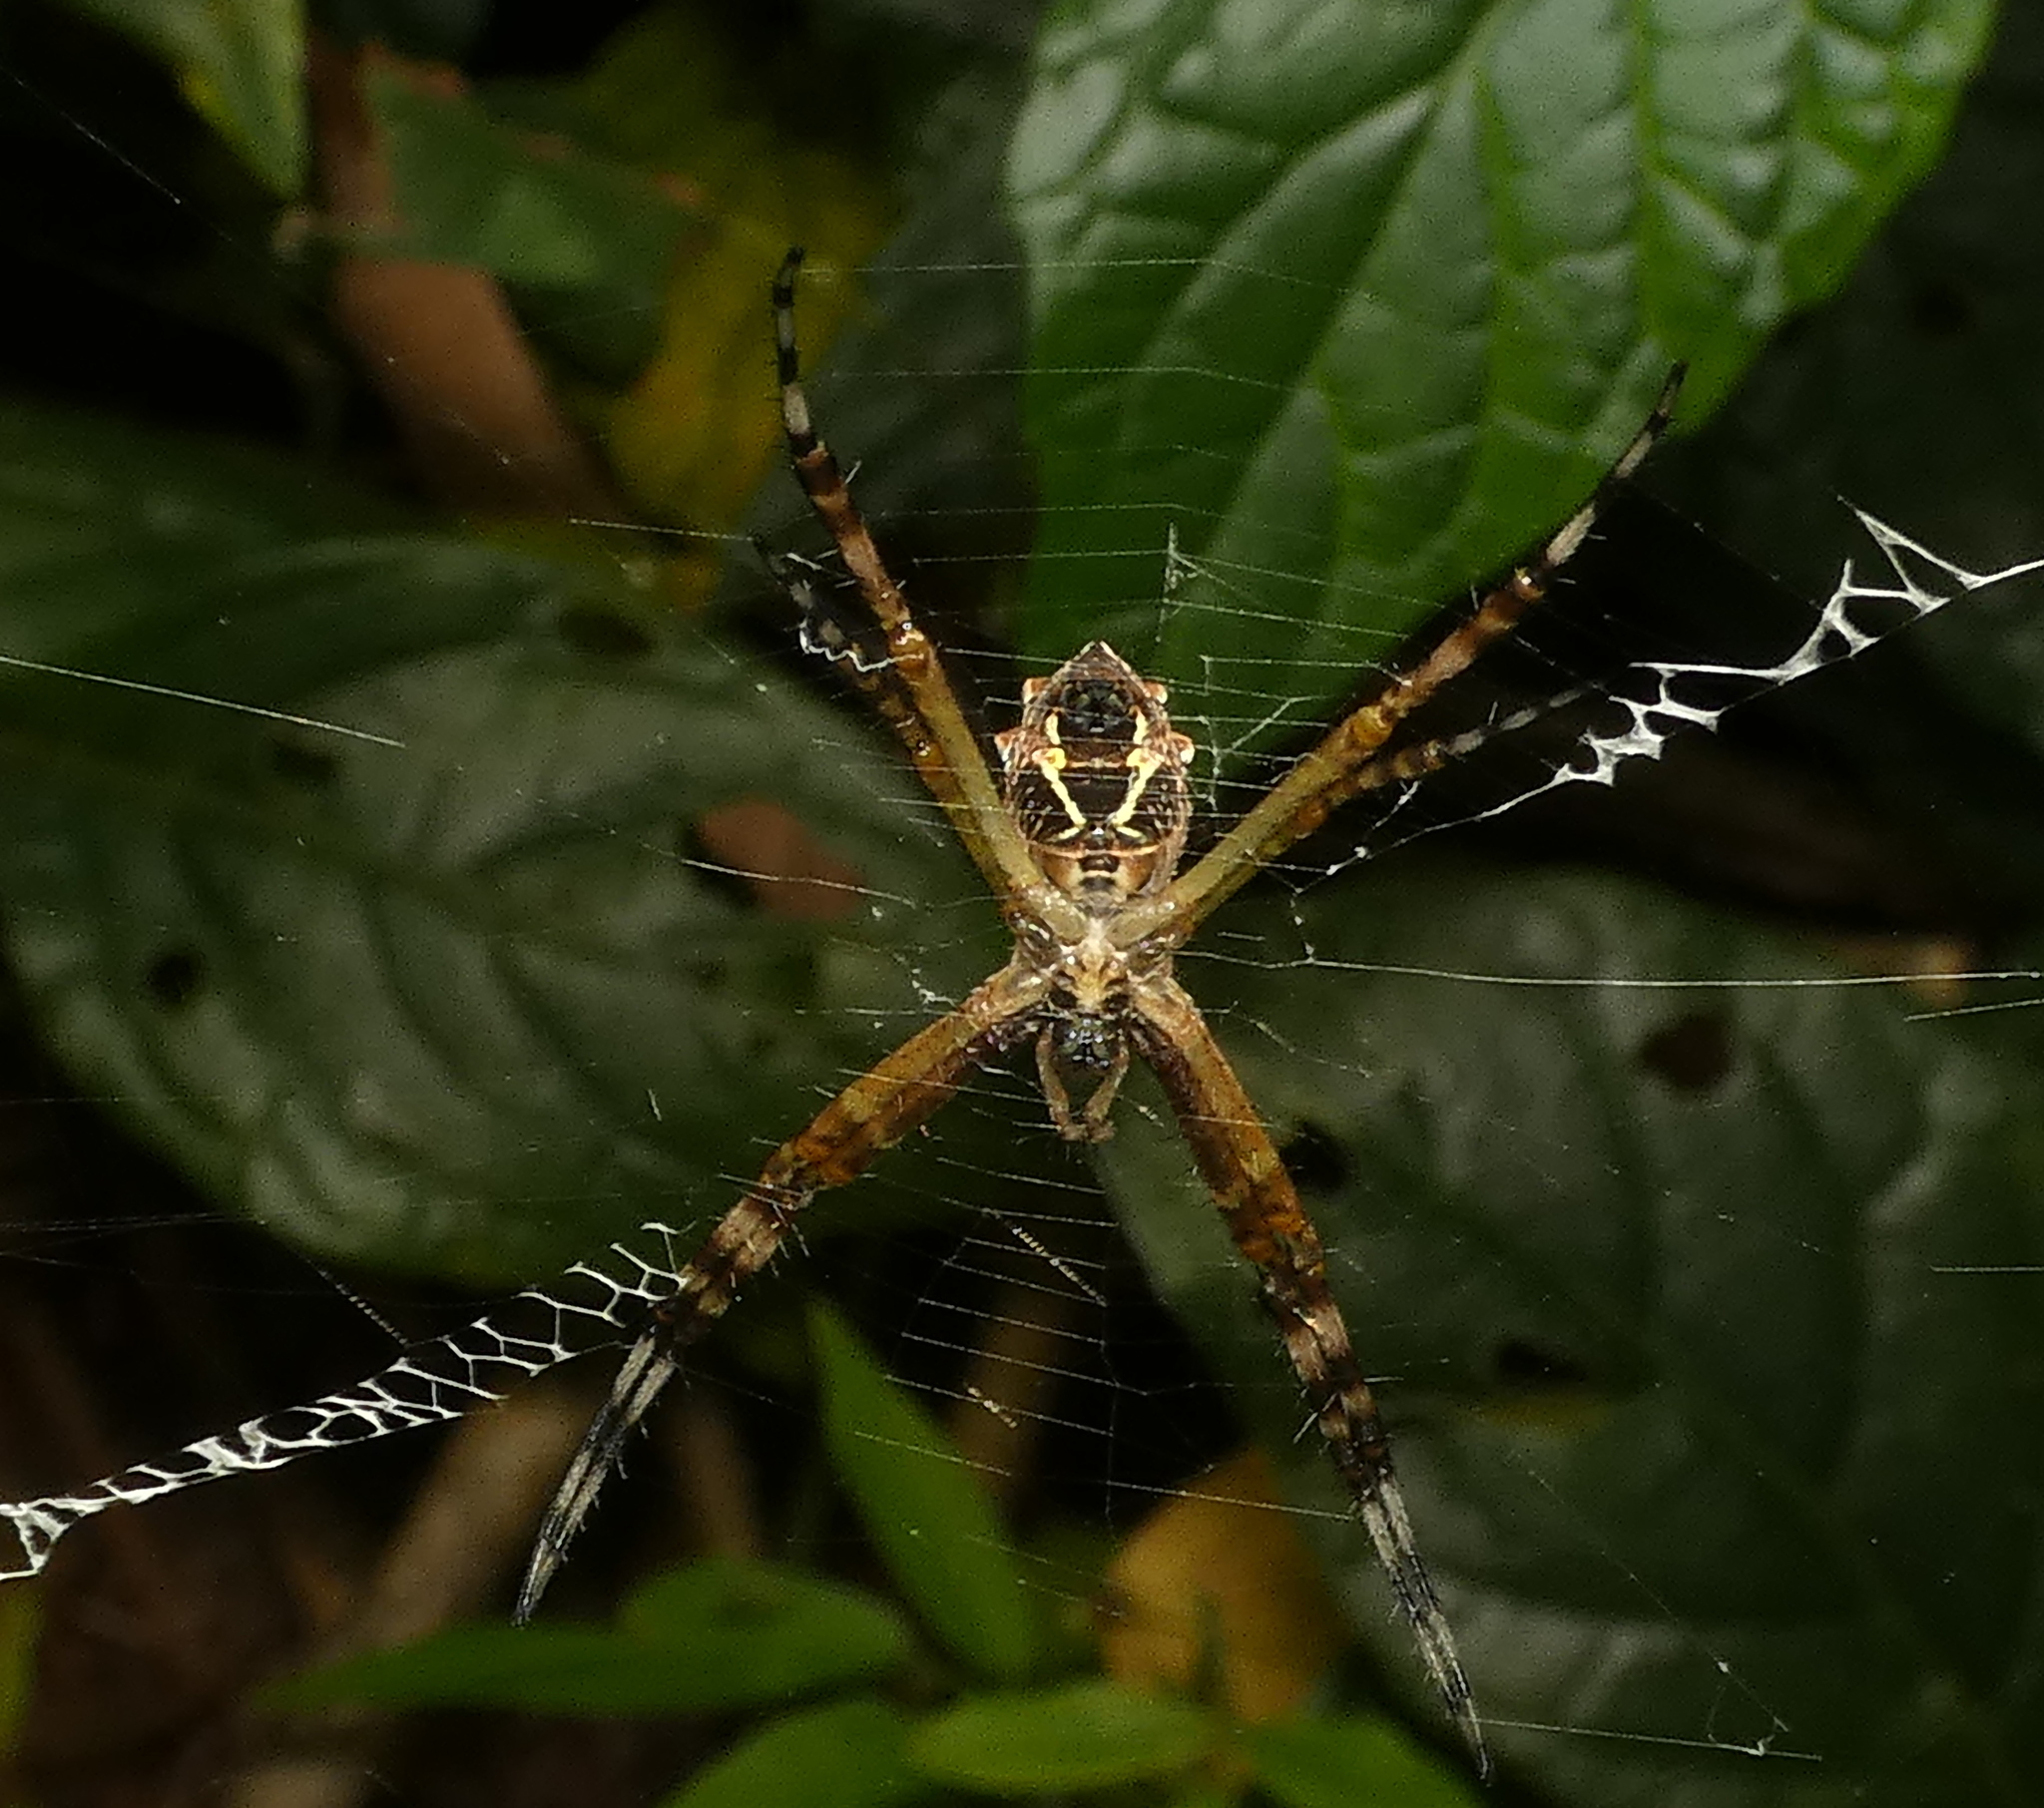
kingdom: Animalia
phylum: Arthropoda
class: Arachnida
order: Araneae
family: Araneidae
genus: Argiope
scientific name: Argiope argentata
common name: Orb weavers
